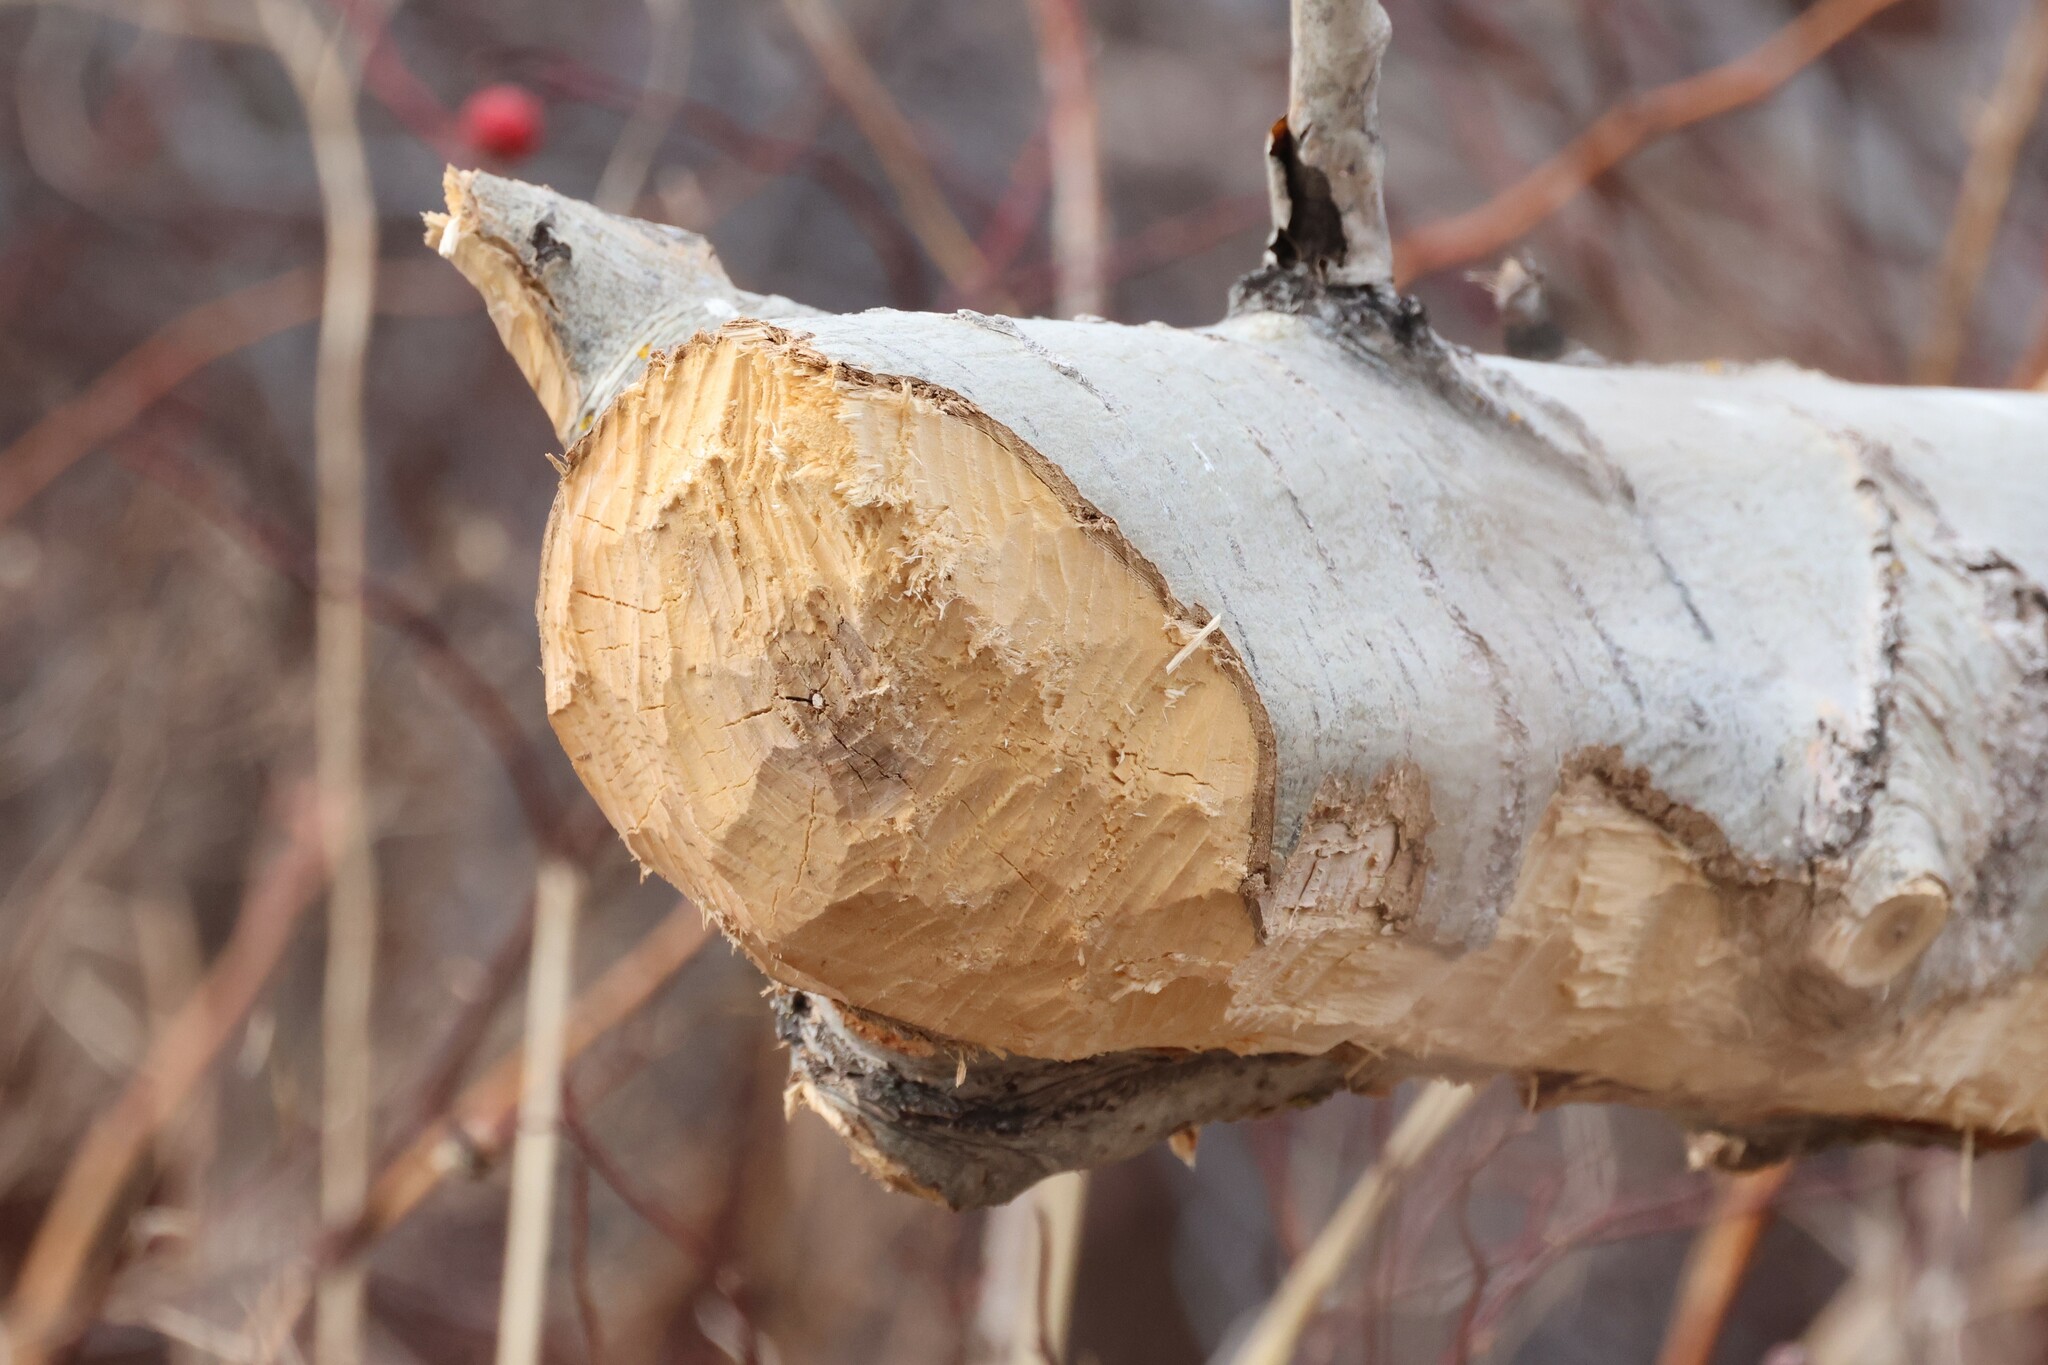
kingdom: Animalia
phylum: Chordata
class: Mammalia
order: Rodentia
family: Castoridae
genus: Castor
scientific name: Castor canadensis
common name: American beaver
